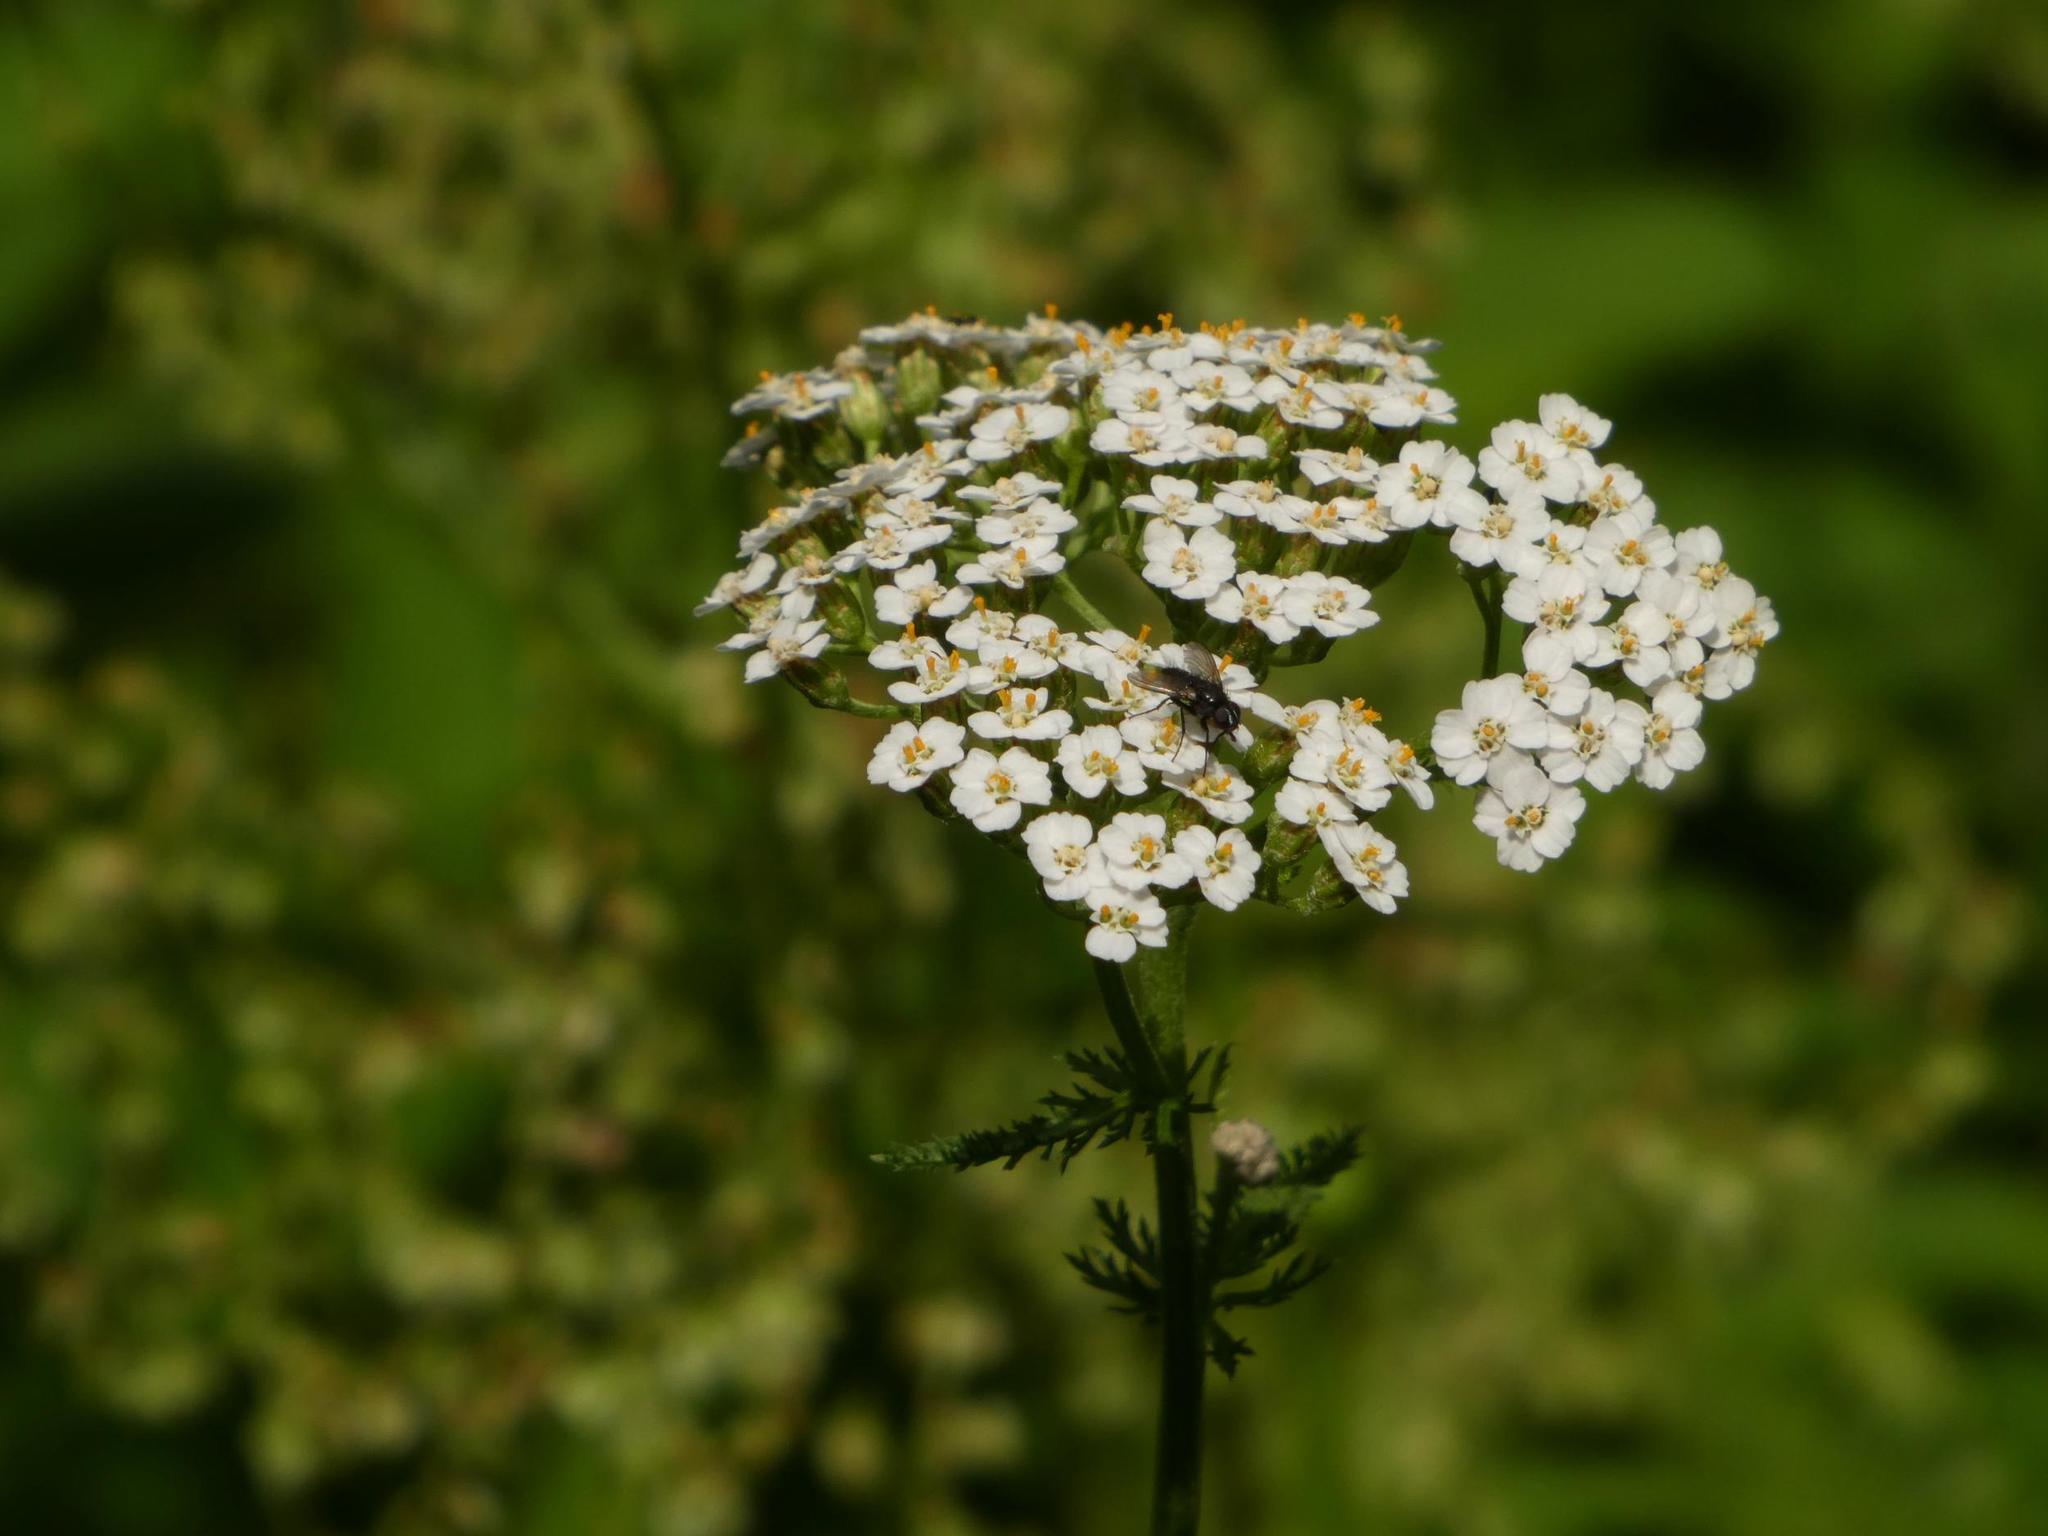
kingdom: Plantae
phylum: Tracheophyta
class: Magnoliopsida
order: Asterales
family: Asteraceae
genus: Achillea
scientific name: Achillea millefolium
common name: Yarrow
